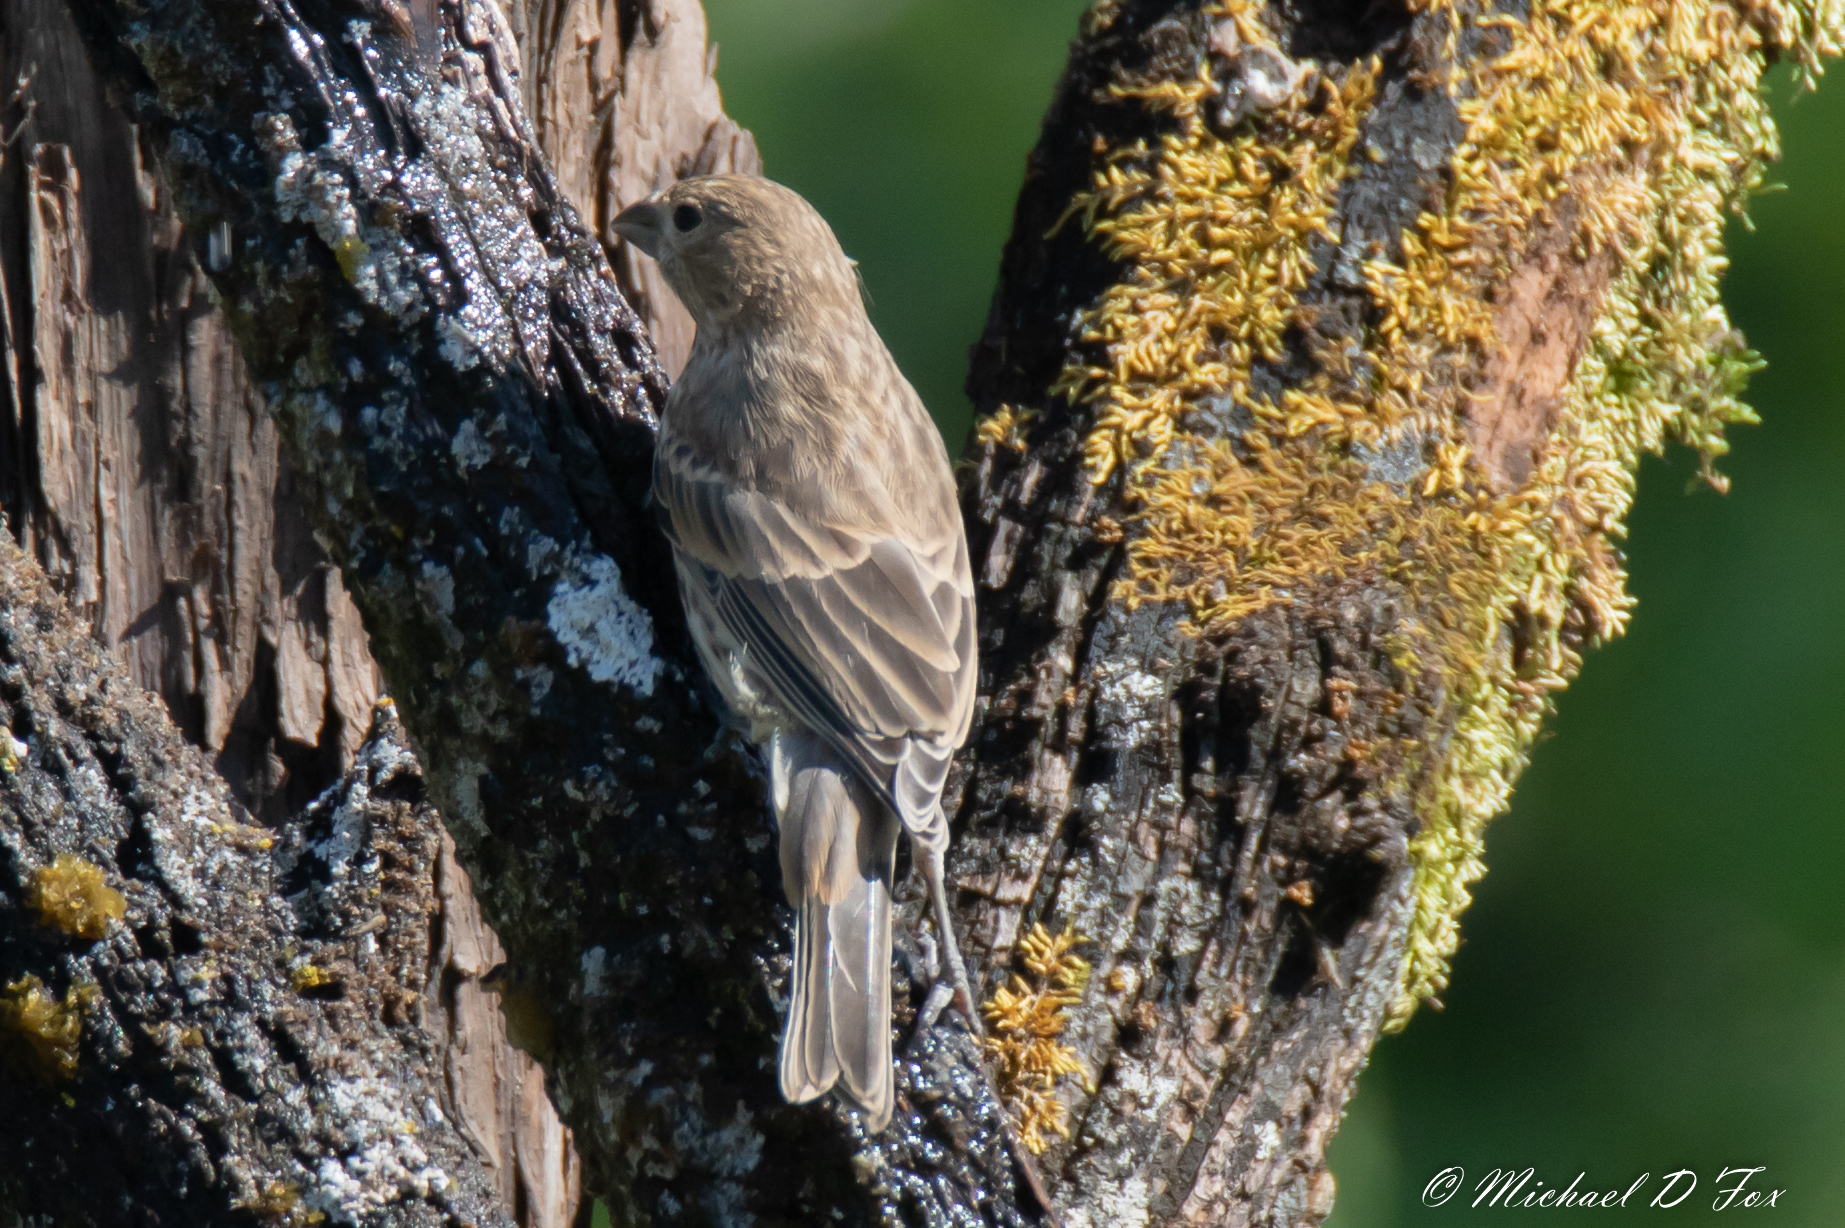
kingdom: Animalia
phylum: Chordata
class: Aves
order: Passeriformes
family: Cardinalidae
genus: Passerina
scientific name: Passerina cyanea
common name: Indigo bunting
